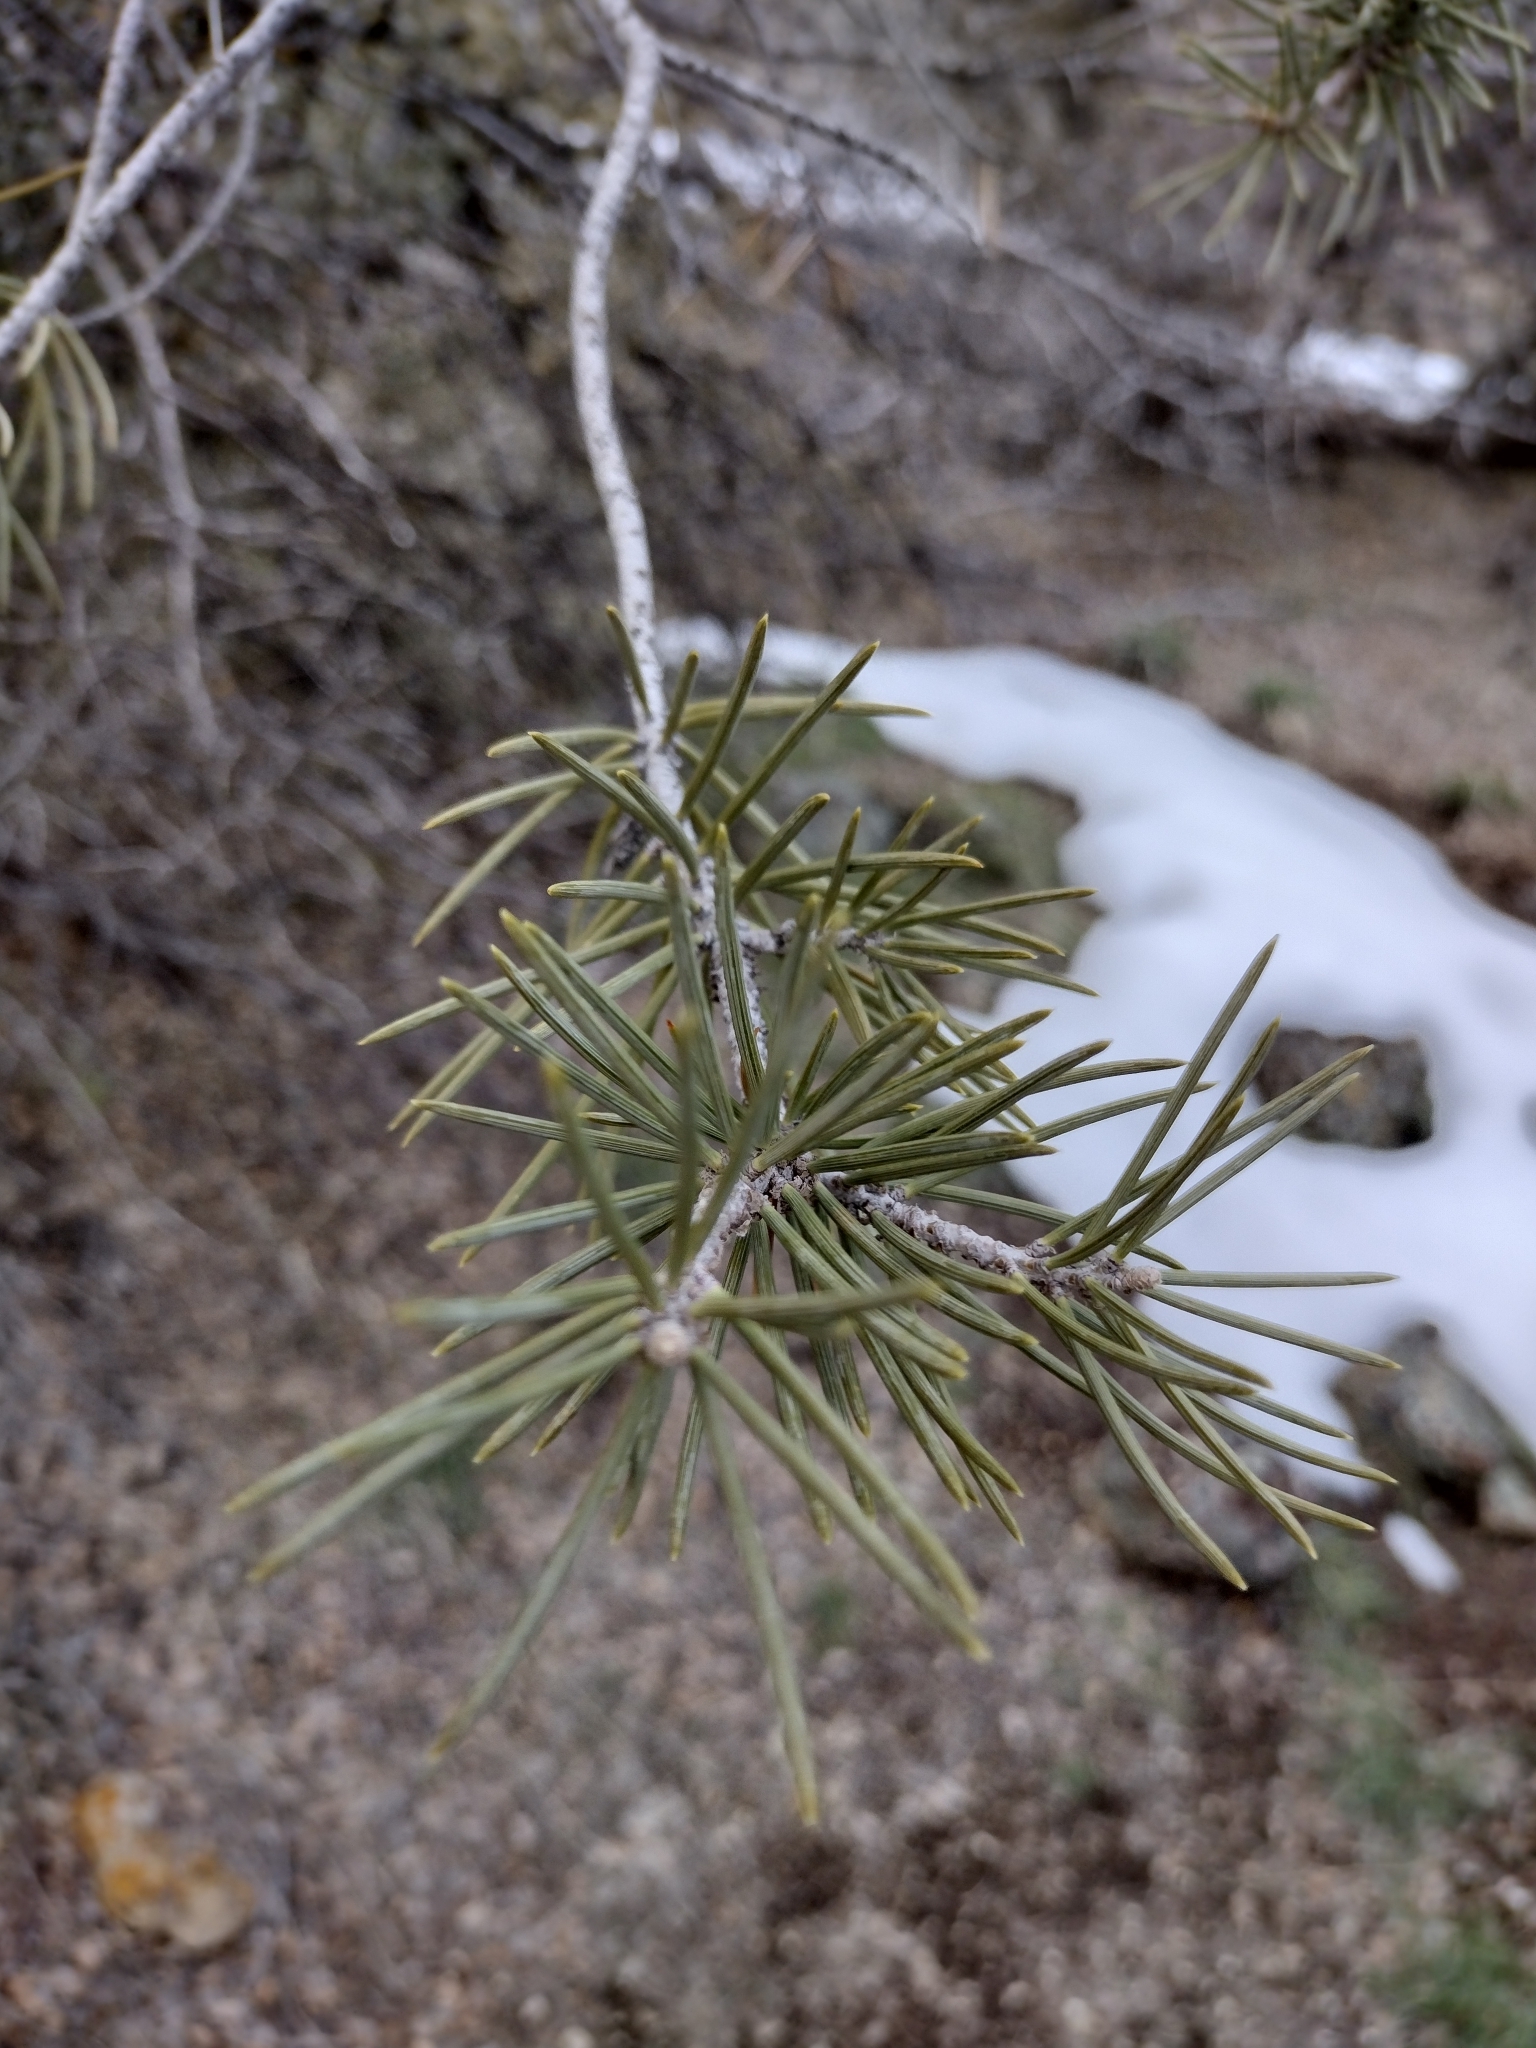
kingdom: Plantae
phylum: Tracheophyta
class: Pinopsida
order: Pinales
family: Pinaceae
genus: Pinus
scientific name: Pinus monophylla
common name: One-leaved nut pine
